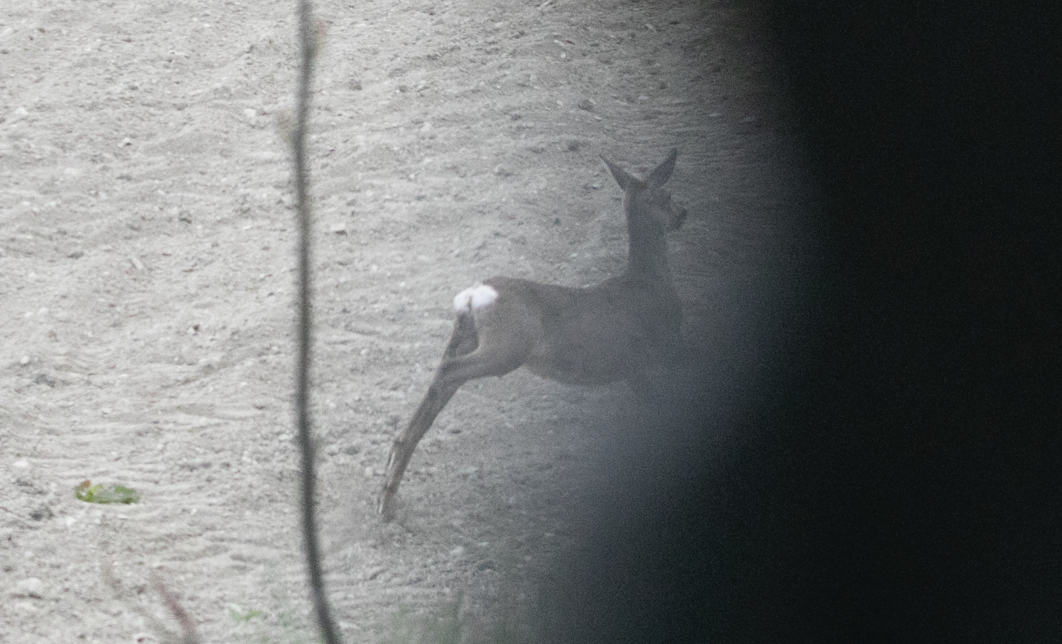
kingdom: Animalia
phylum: Chordata
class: Mammalia
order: Artiodactyla
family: Cervidae
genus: Capreolus
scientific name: Capreolus capreolus
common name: Western roe deer
